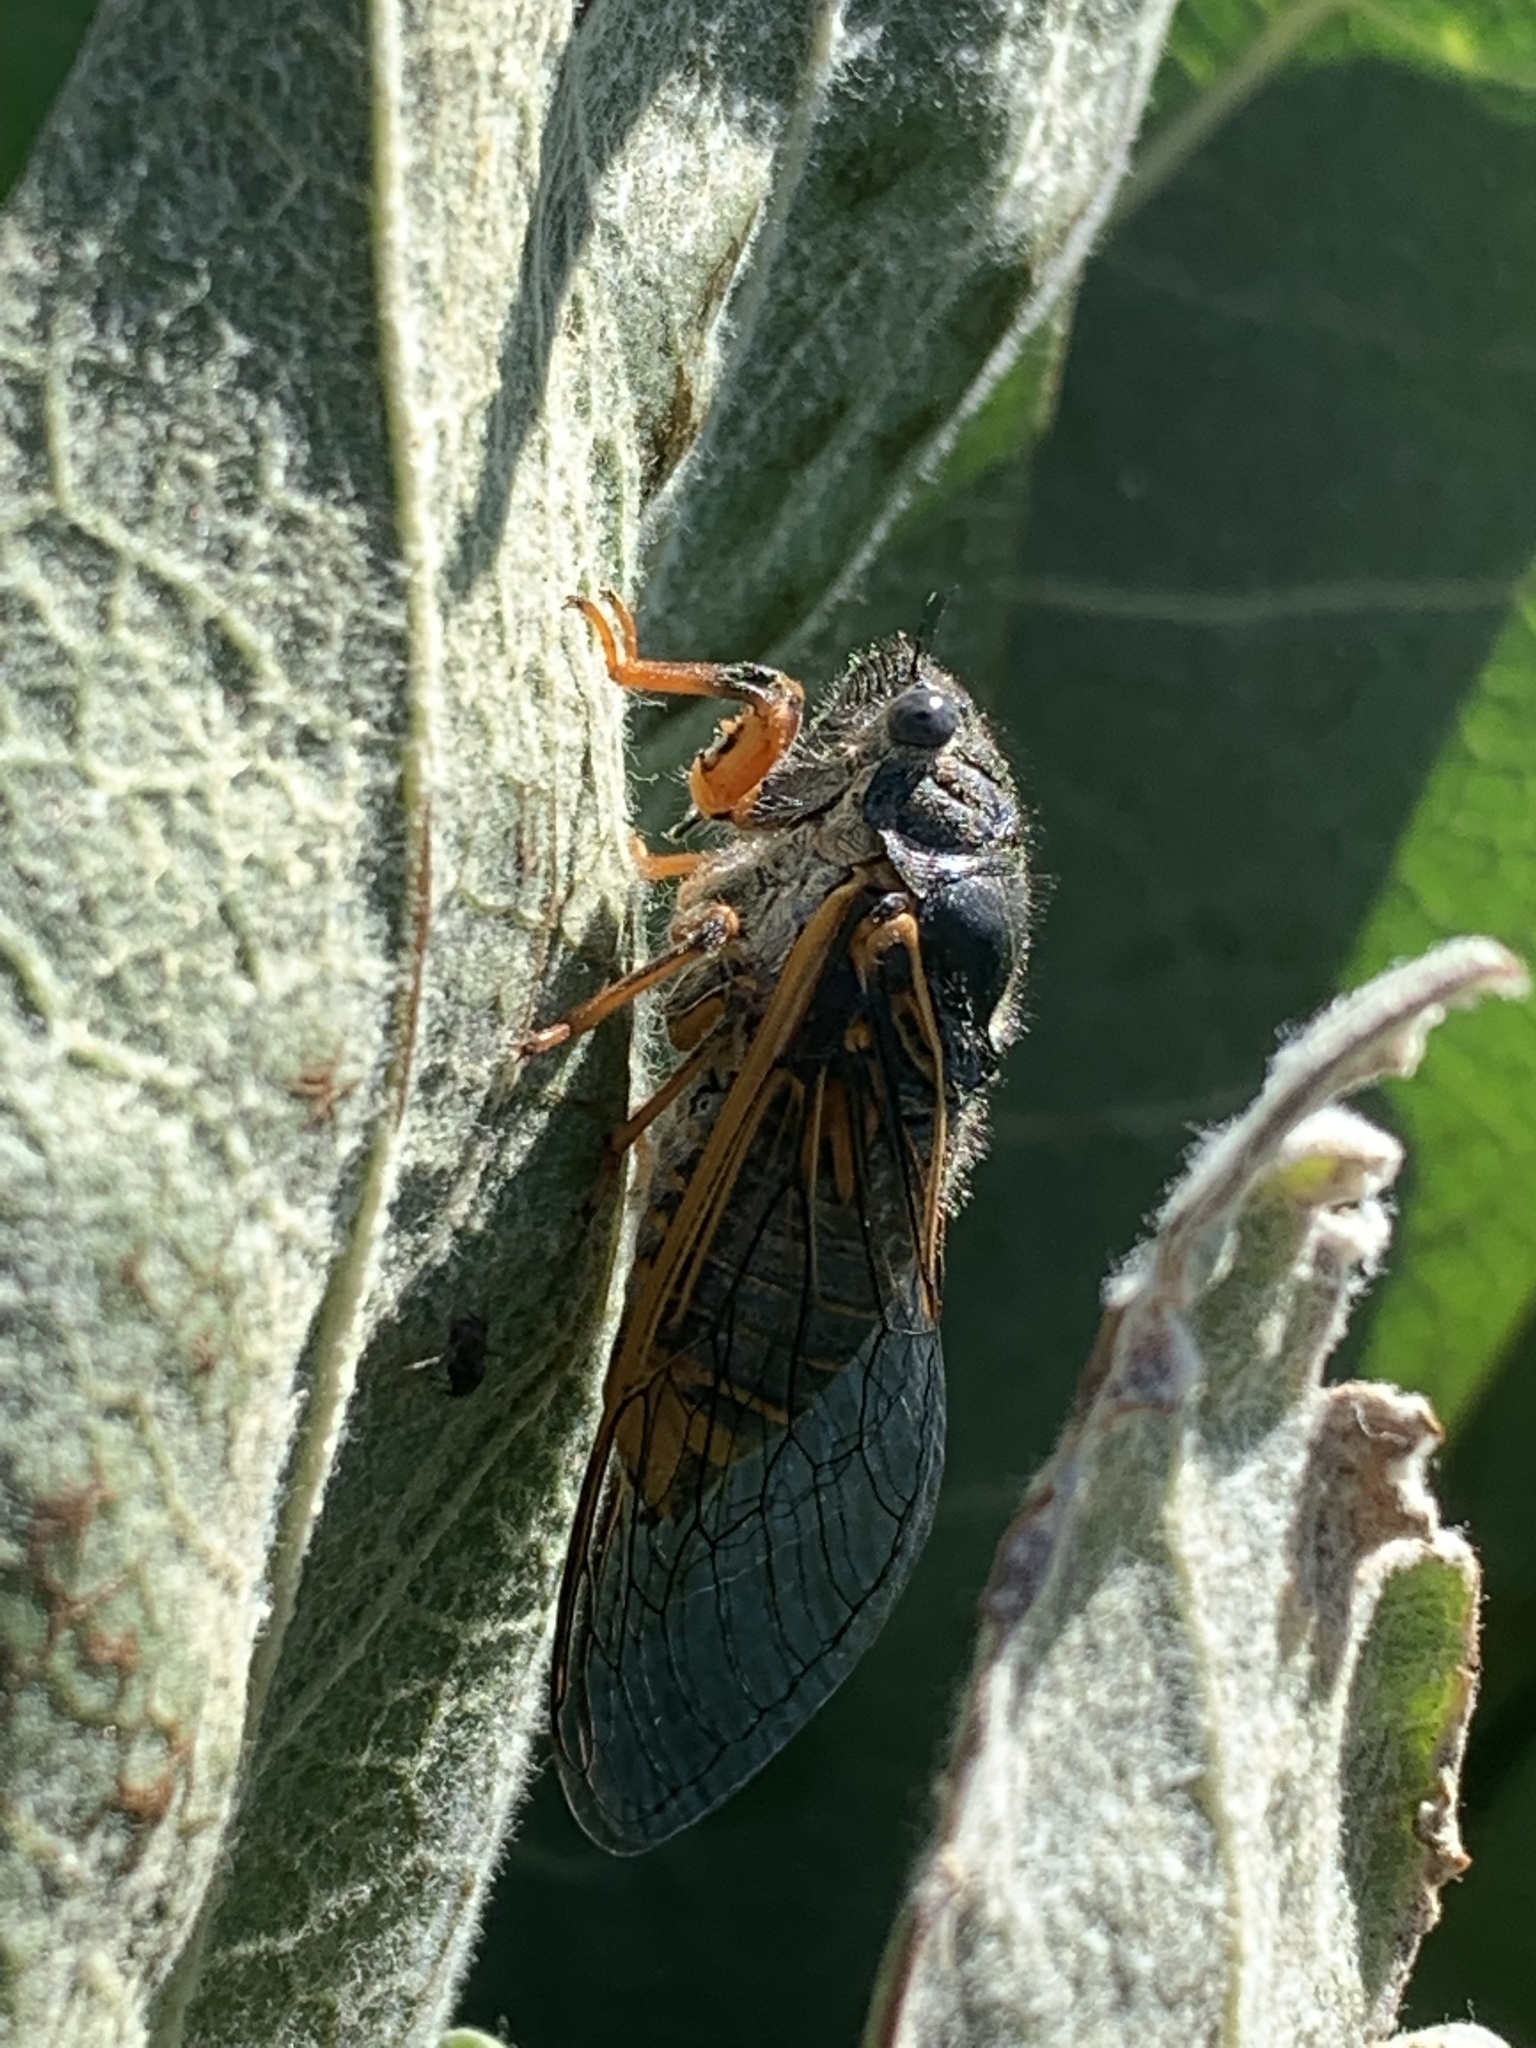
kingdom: Animalia
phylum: Arthropoda
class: Insecta
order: Hemiptera
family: Cicadidae
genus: Okanagana
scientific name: Okanagana ornata
